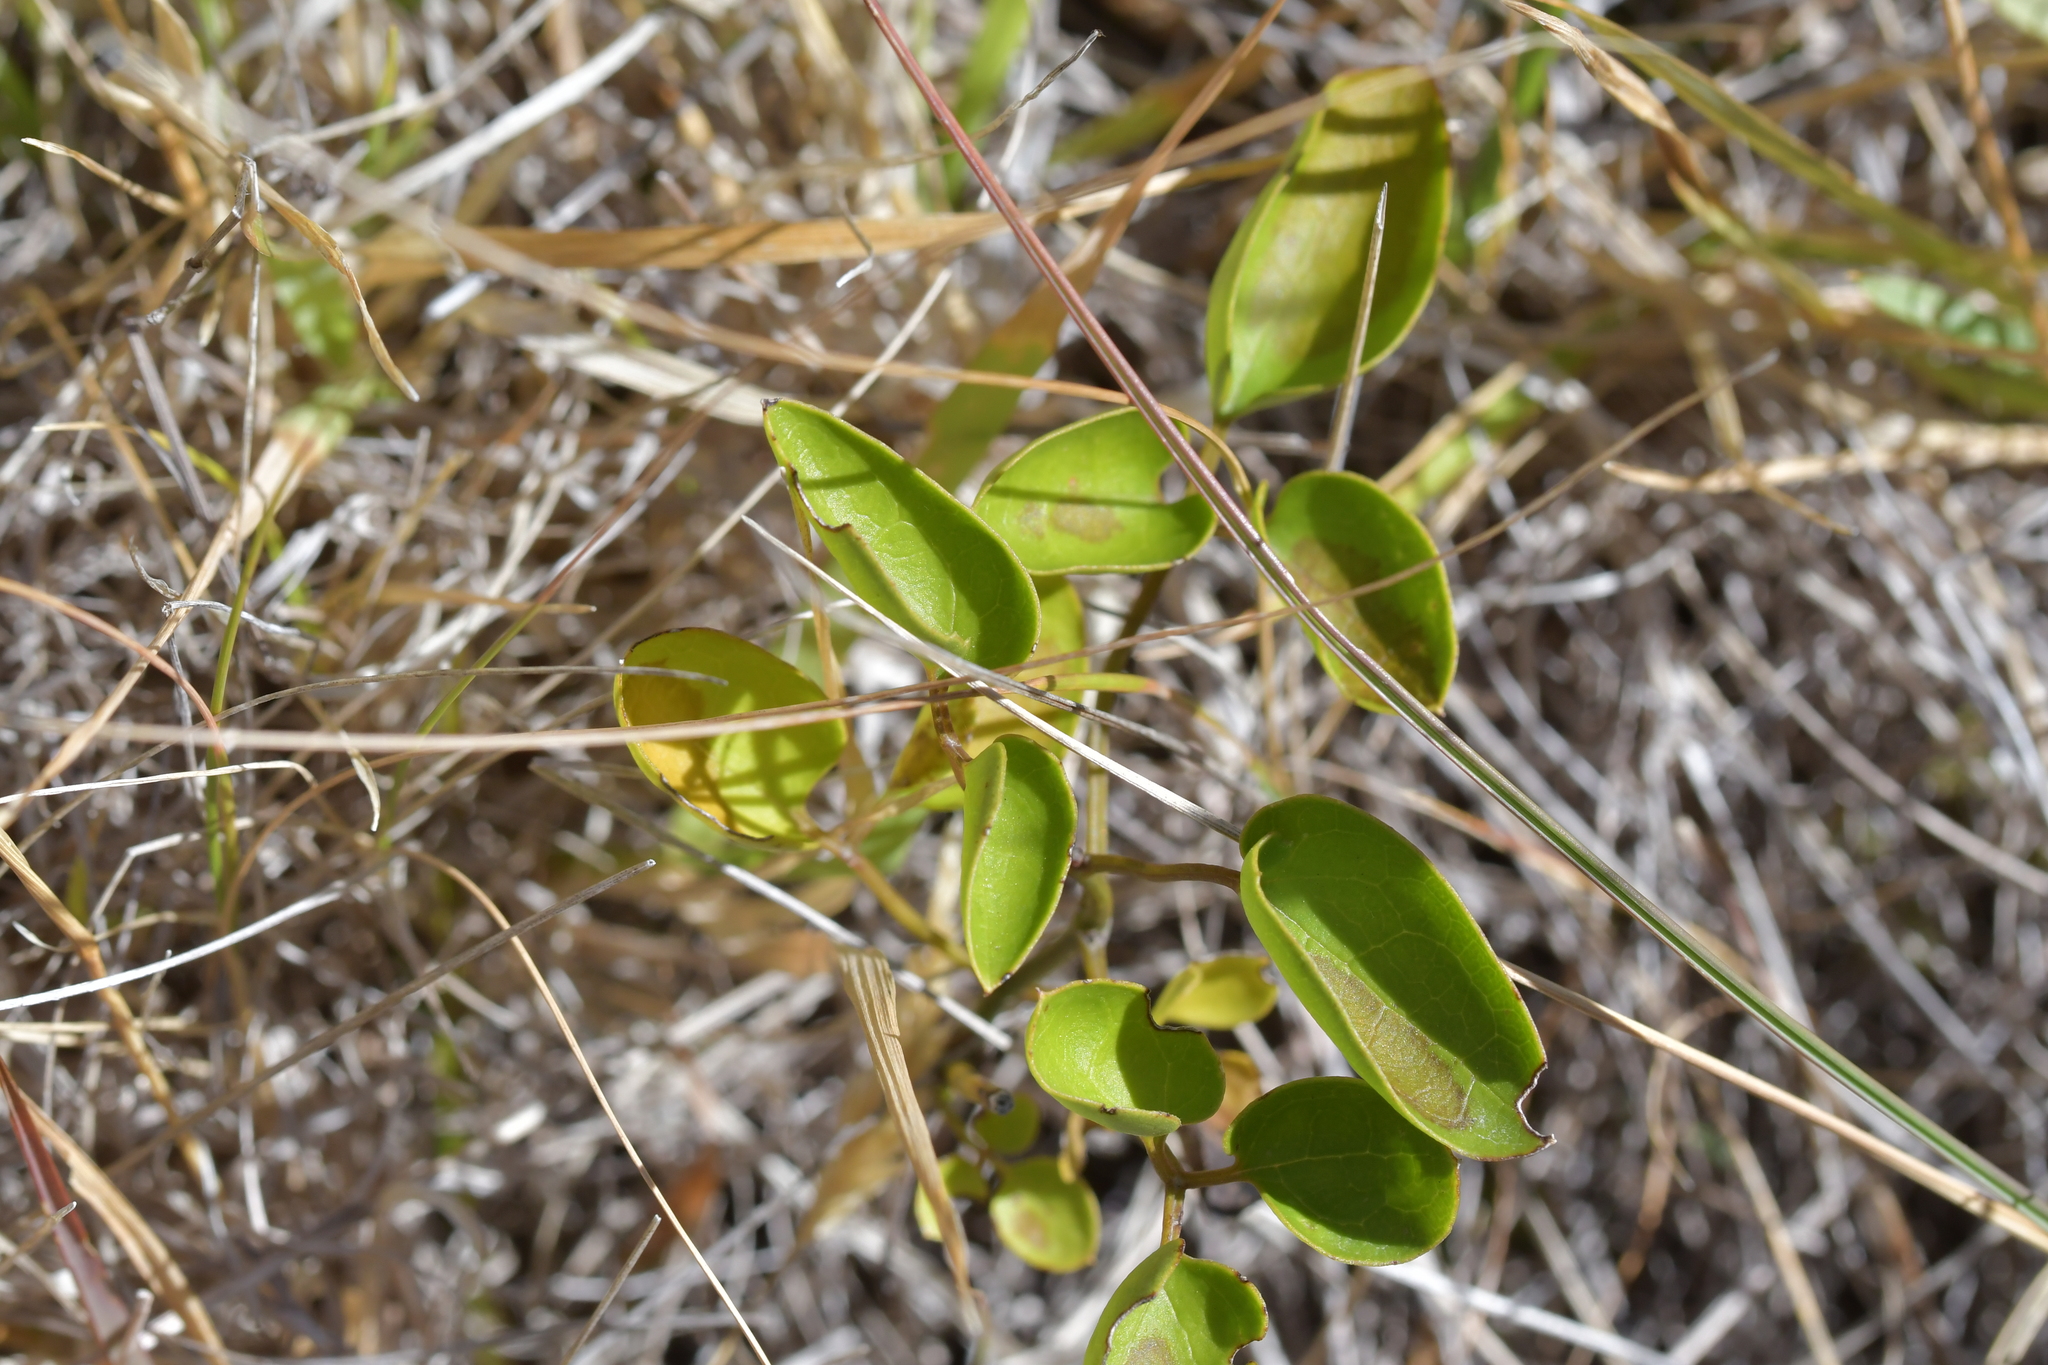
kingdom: Plantae
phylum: Tracheophyta
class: Magnoliopsida
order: Ranunculales
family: Ranunculaceae
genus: Clematis
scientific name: Clematis forsteri
